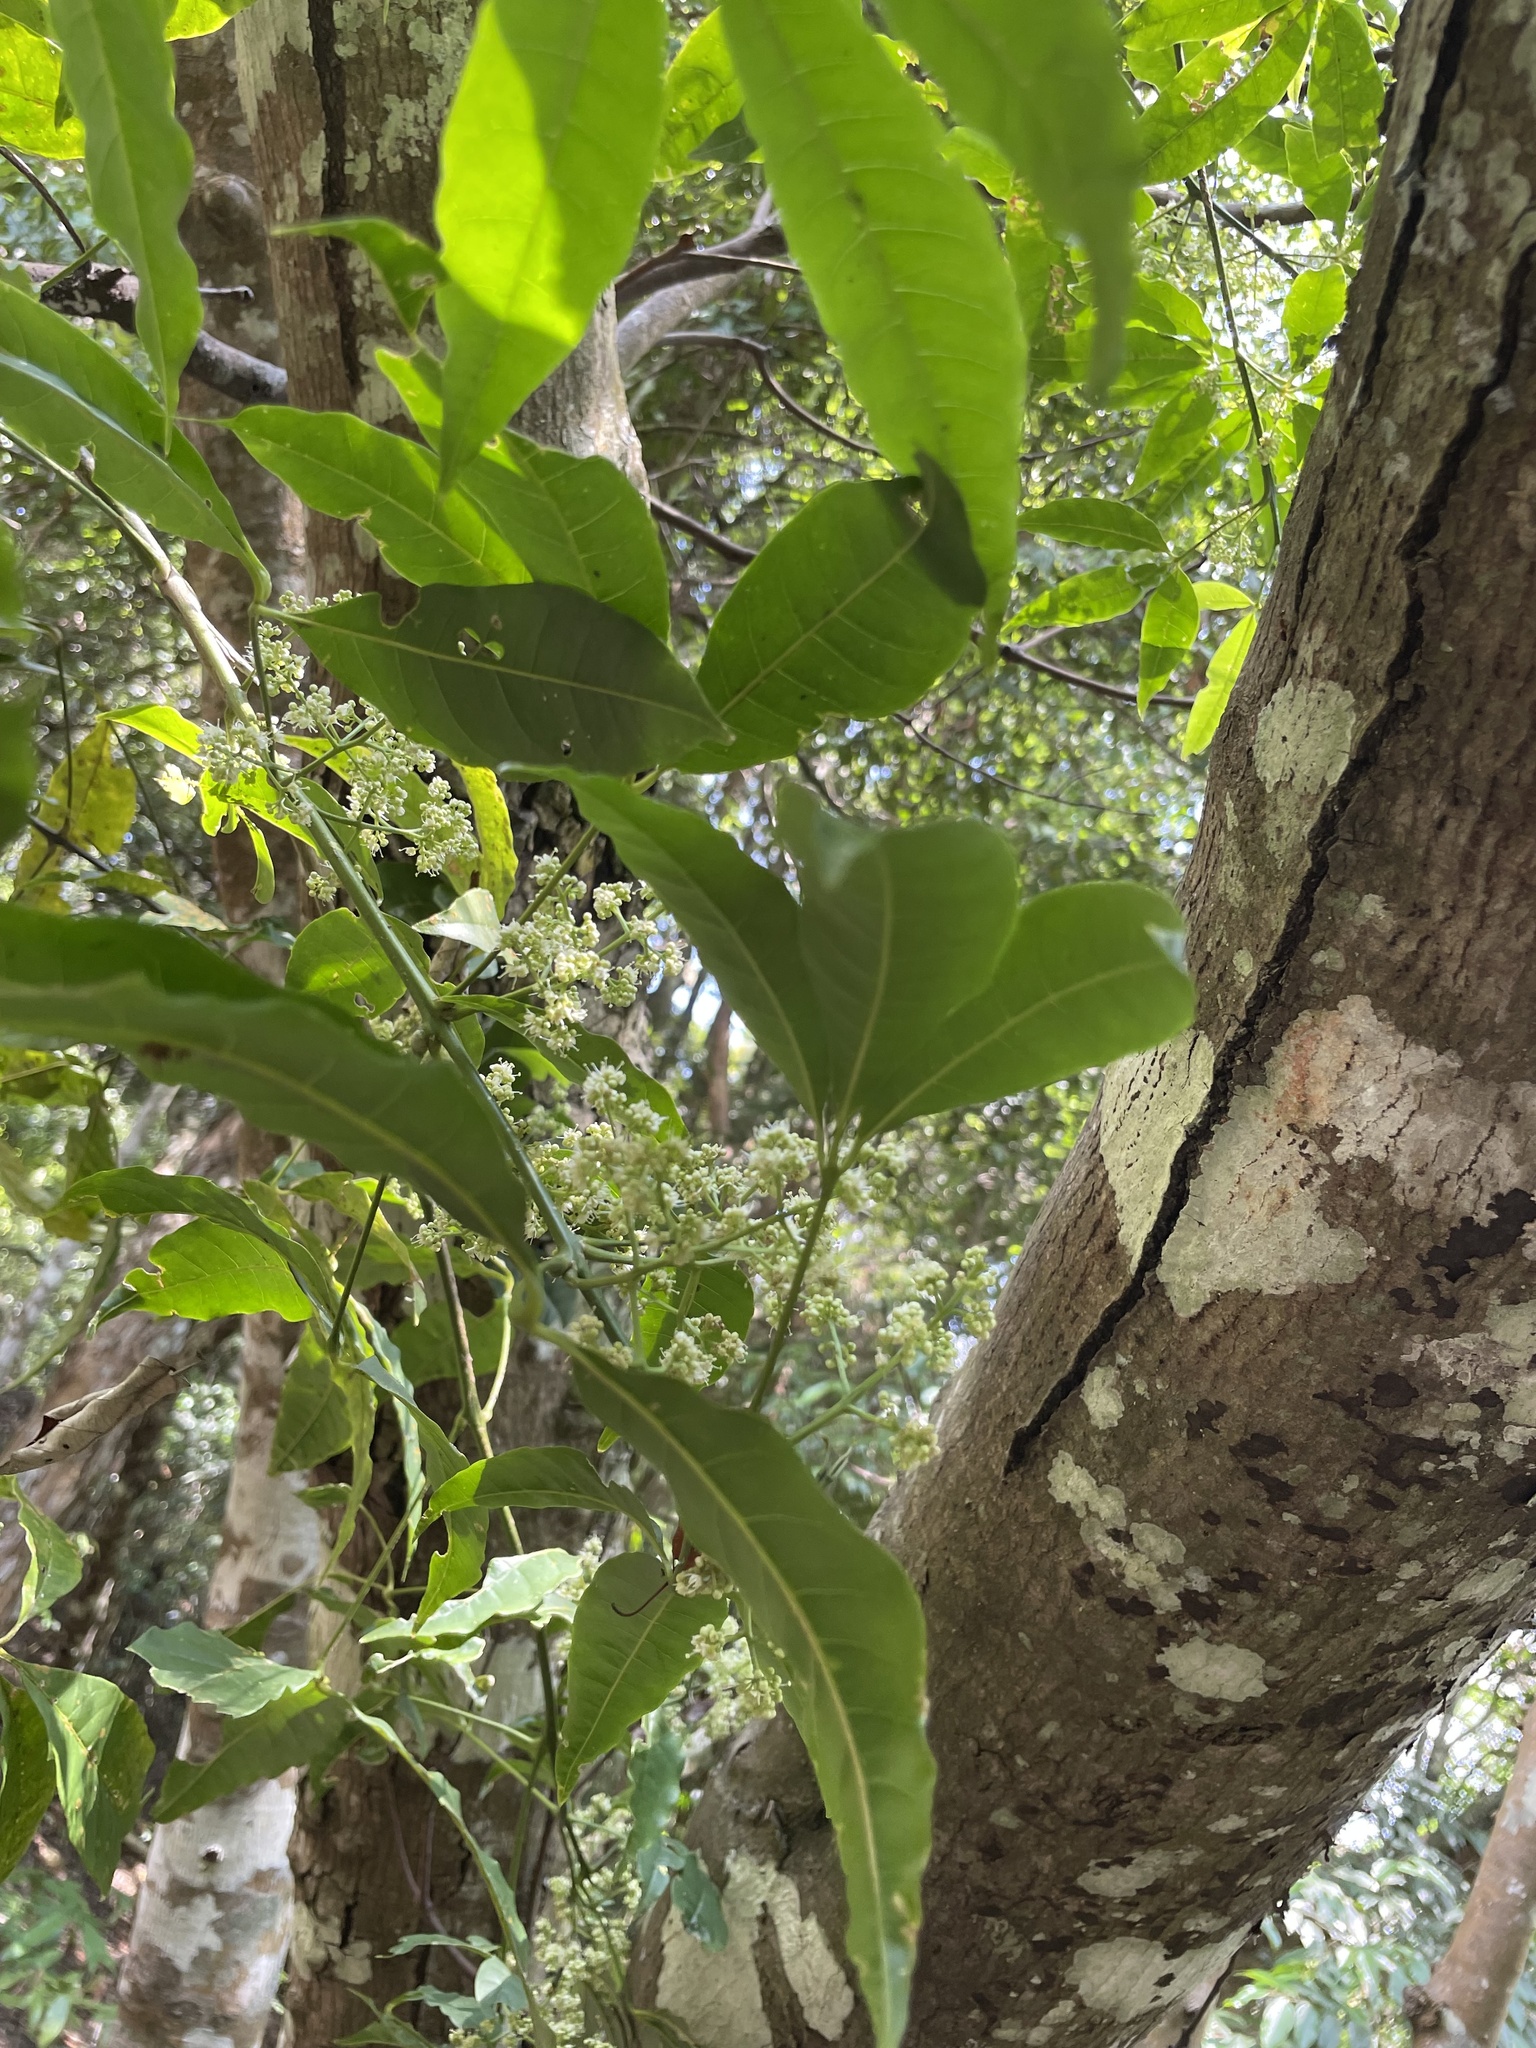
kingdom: Plantae
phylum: Tracheophyta
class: Magnoliopsida
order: Sapindales
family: Rutaceae
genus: Melicope
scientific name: Melicope pteleifolia
